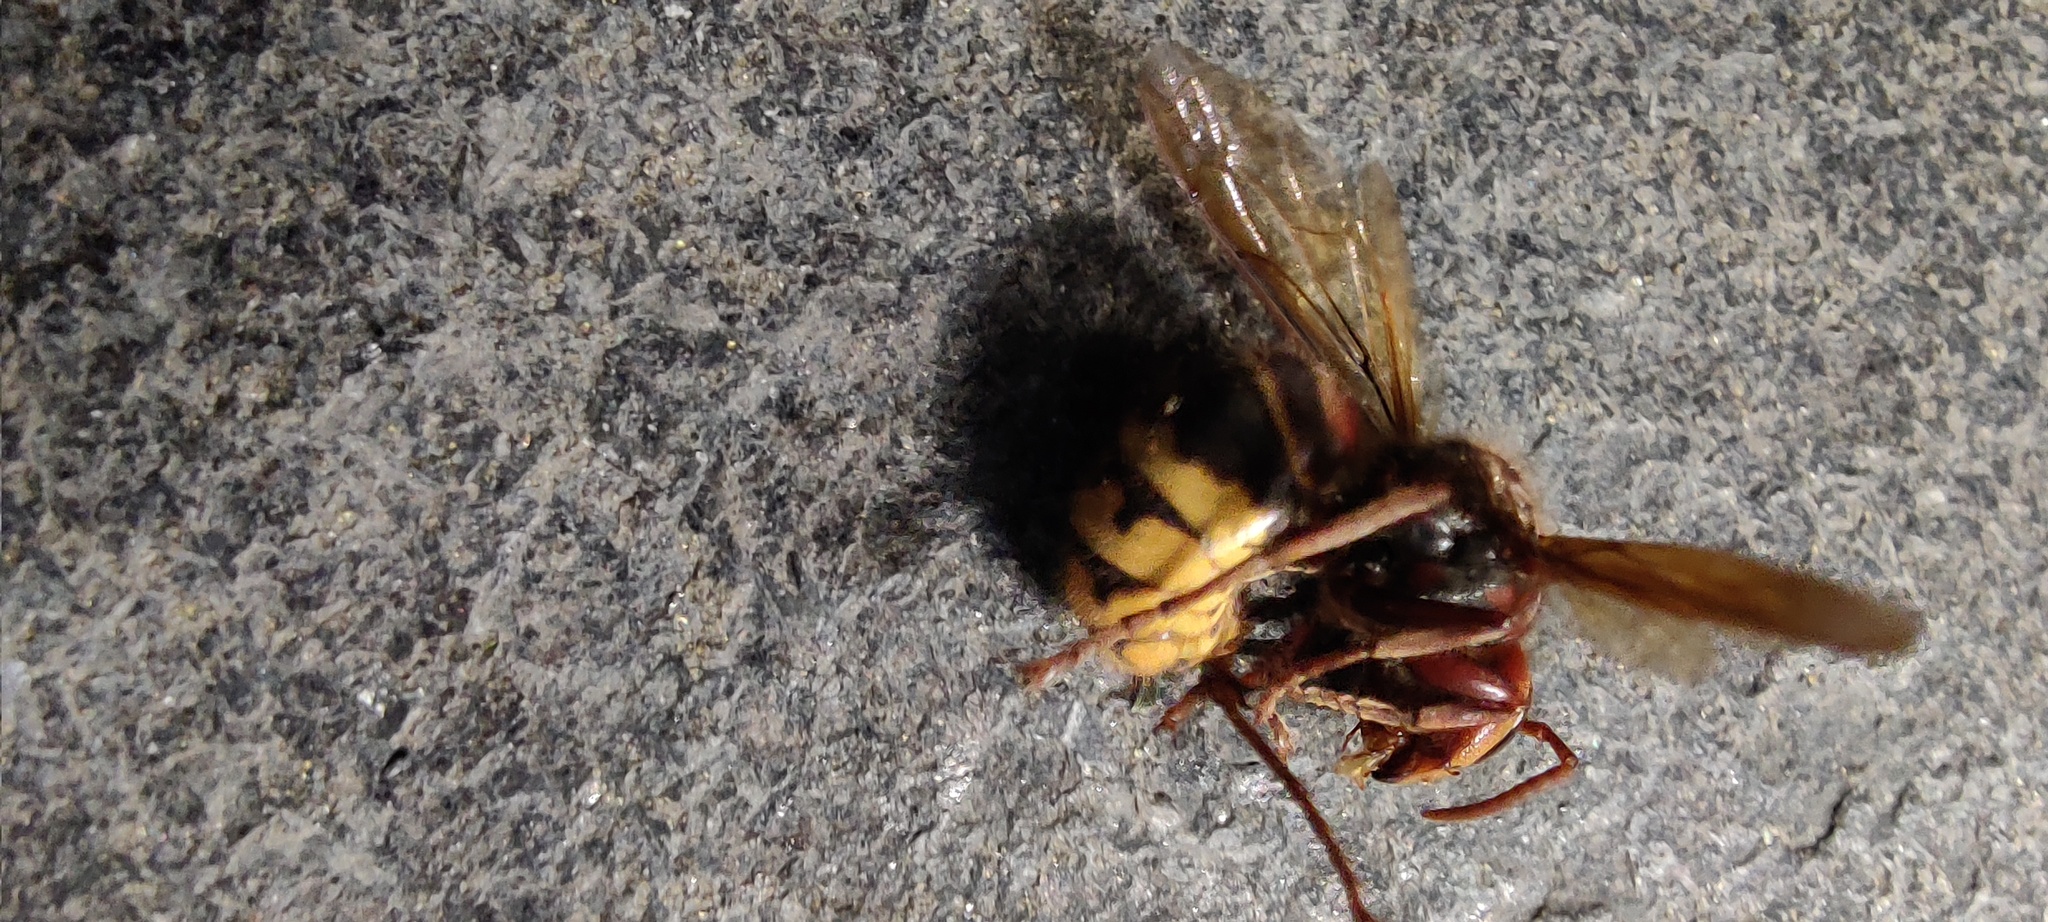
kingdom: Animalia
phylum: Arthropoda
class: Insecta
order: Hymenoptera
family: Vespidae
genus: Vespa
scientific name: Vespa crabro
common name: Hornet
